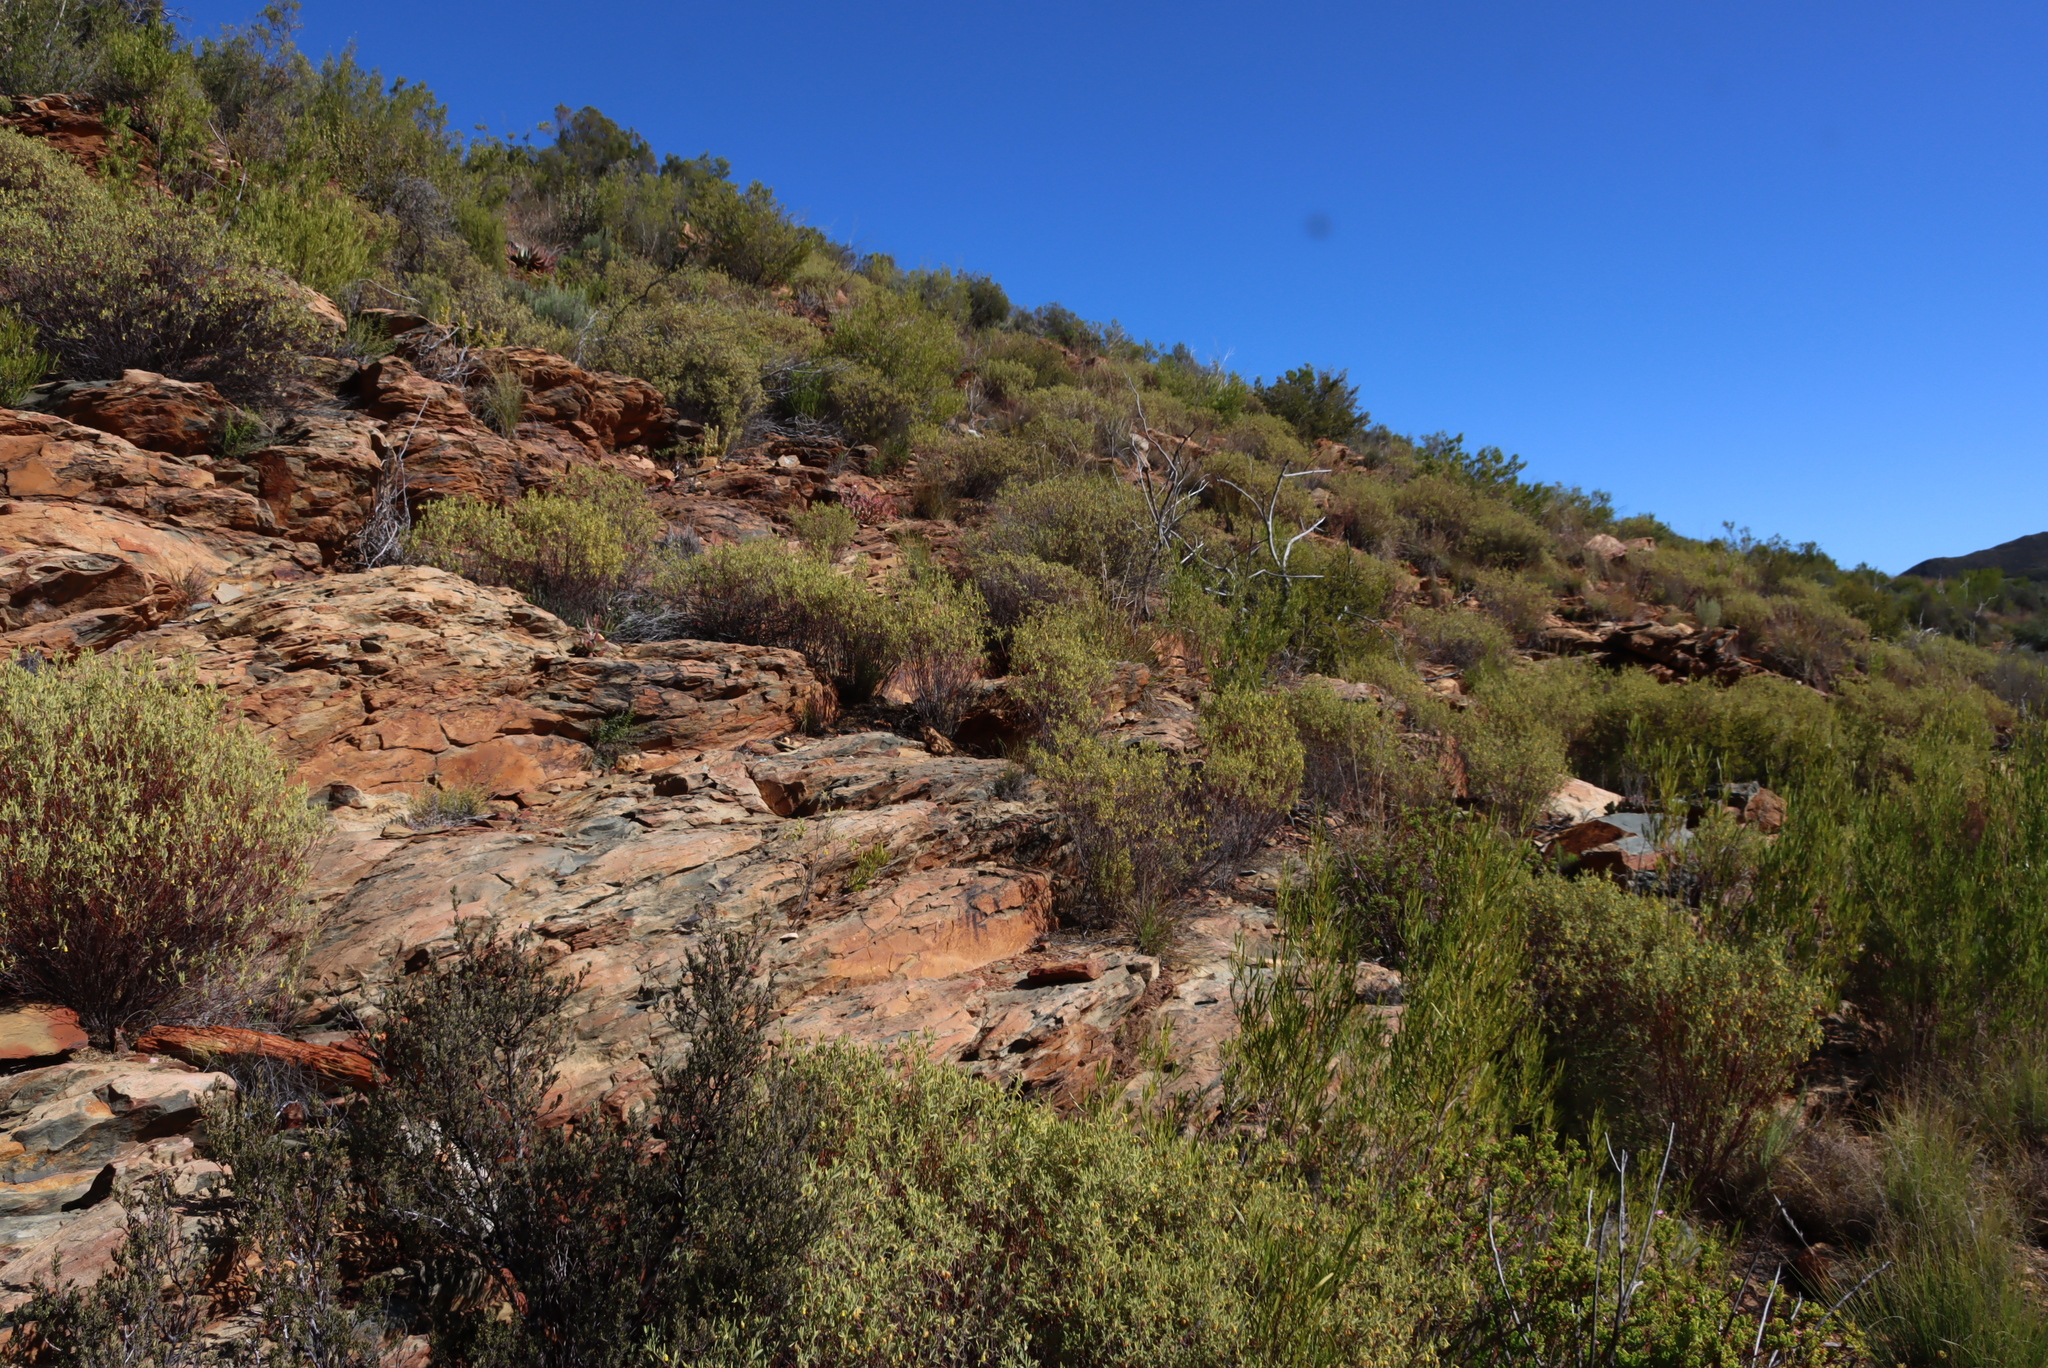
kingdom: Plantae
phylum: Tracheophyta
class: Magnoliopsida
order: Malvales
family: Malvaceae
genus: Hermannia
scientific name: Hermannia velutina
